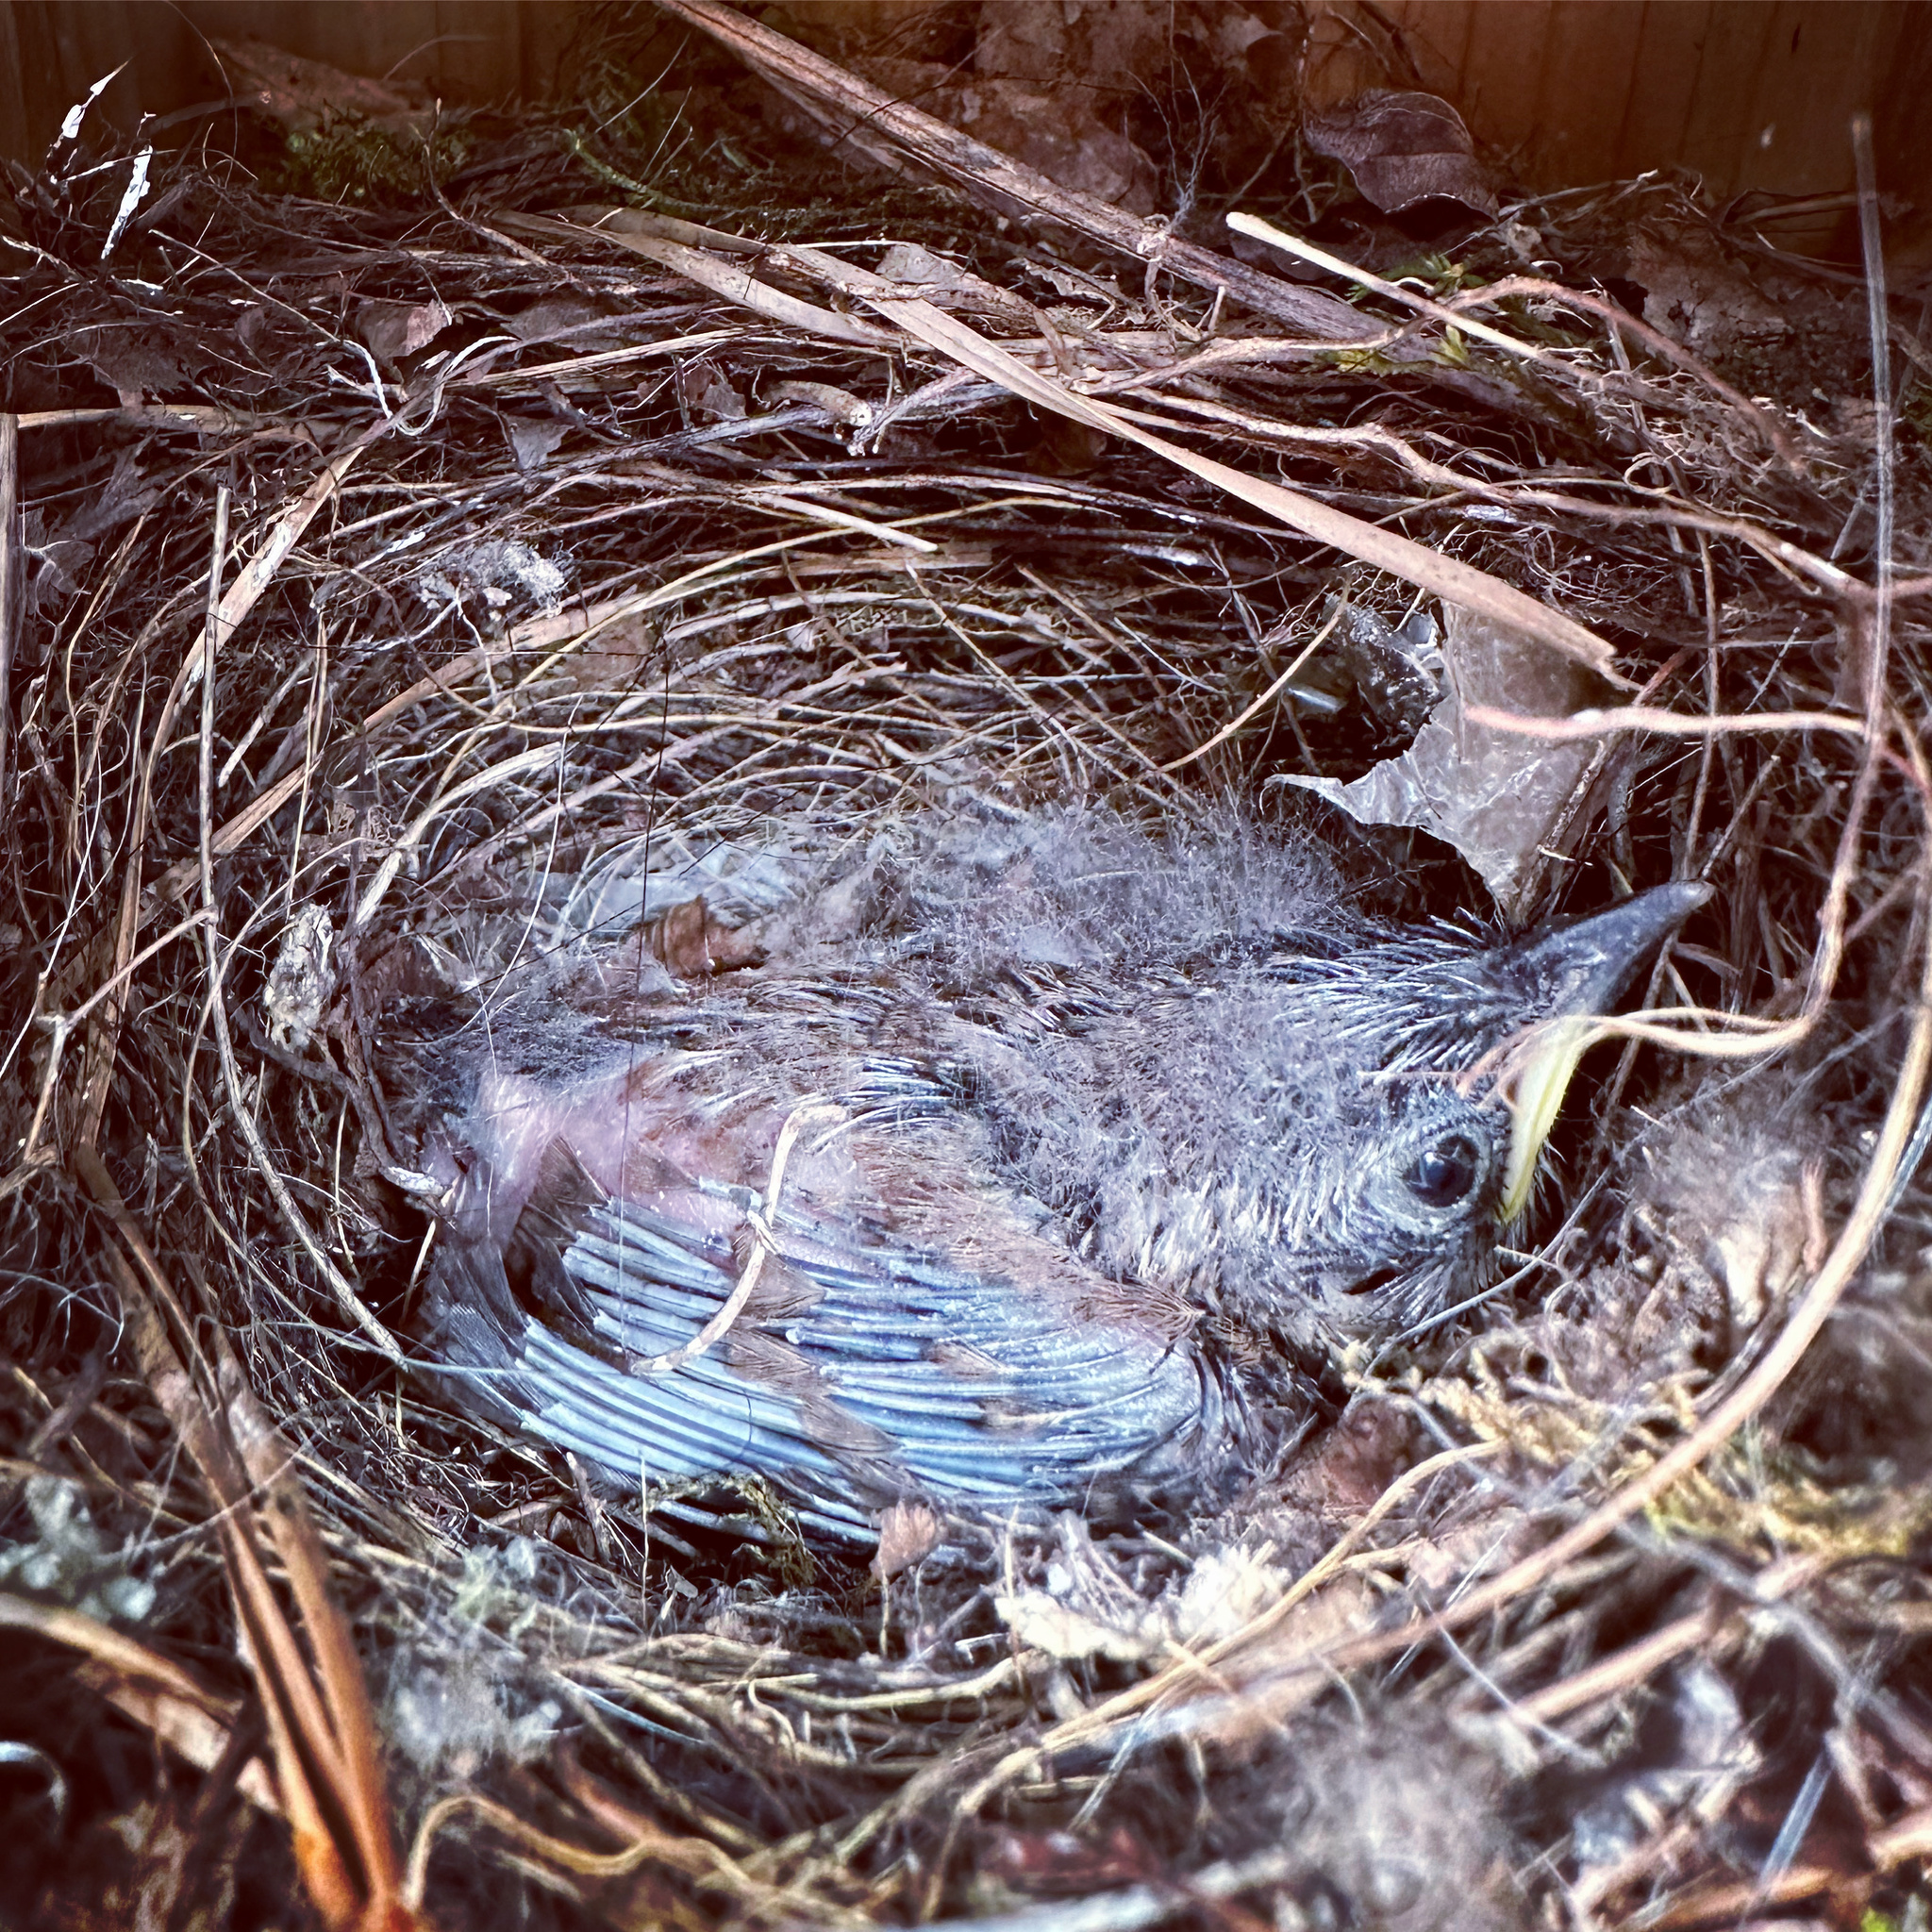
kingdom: Animalia
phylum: Chordata
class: Aves
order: Passeriformes
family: Troglodytidae
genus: Thryothorus
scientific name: Thryothorus ludovicianus
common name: Carolina wren
